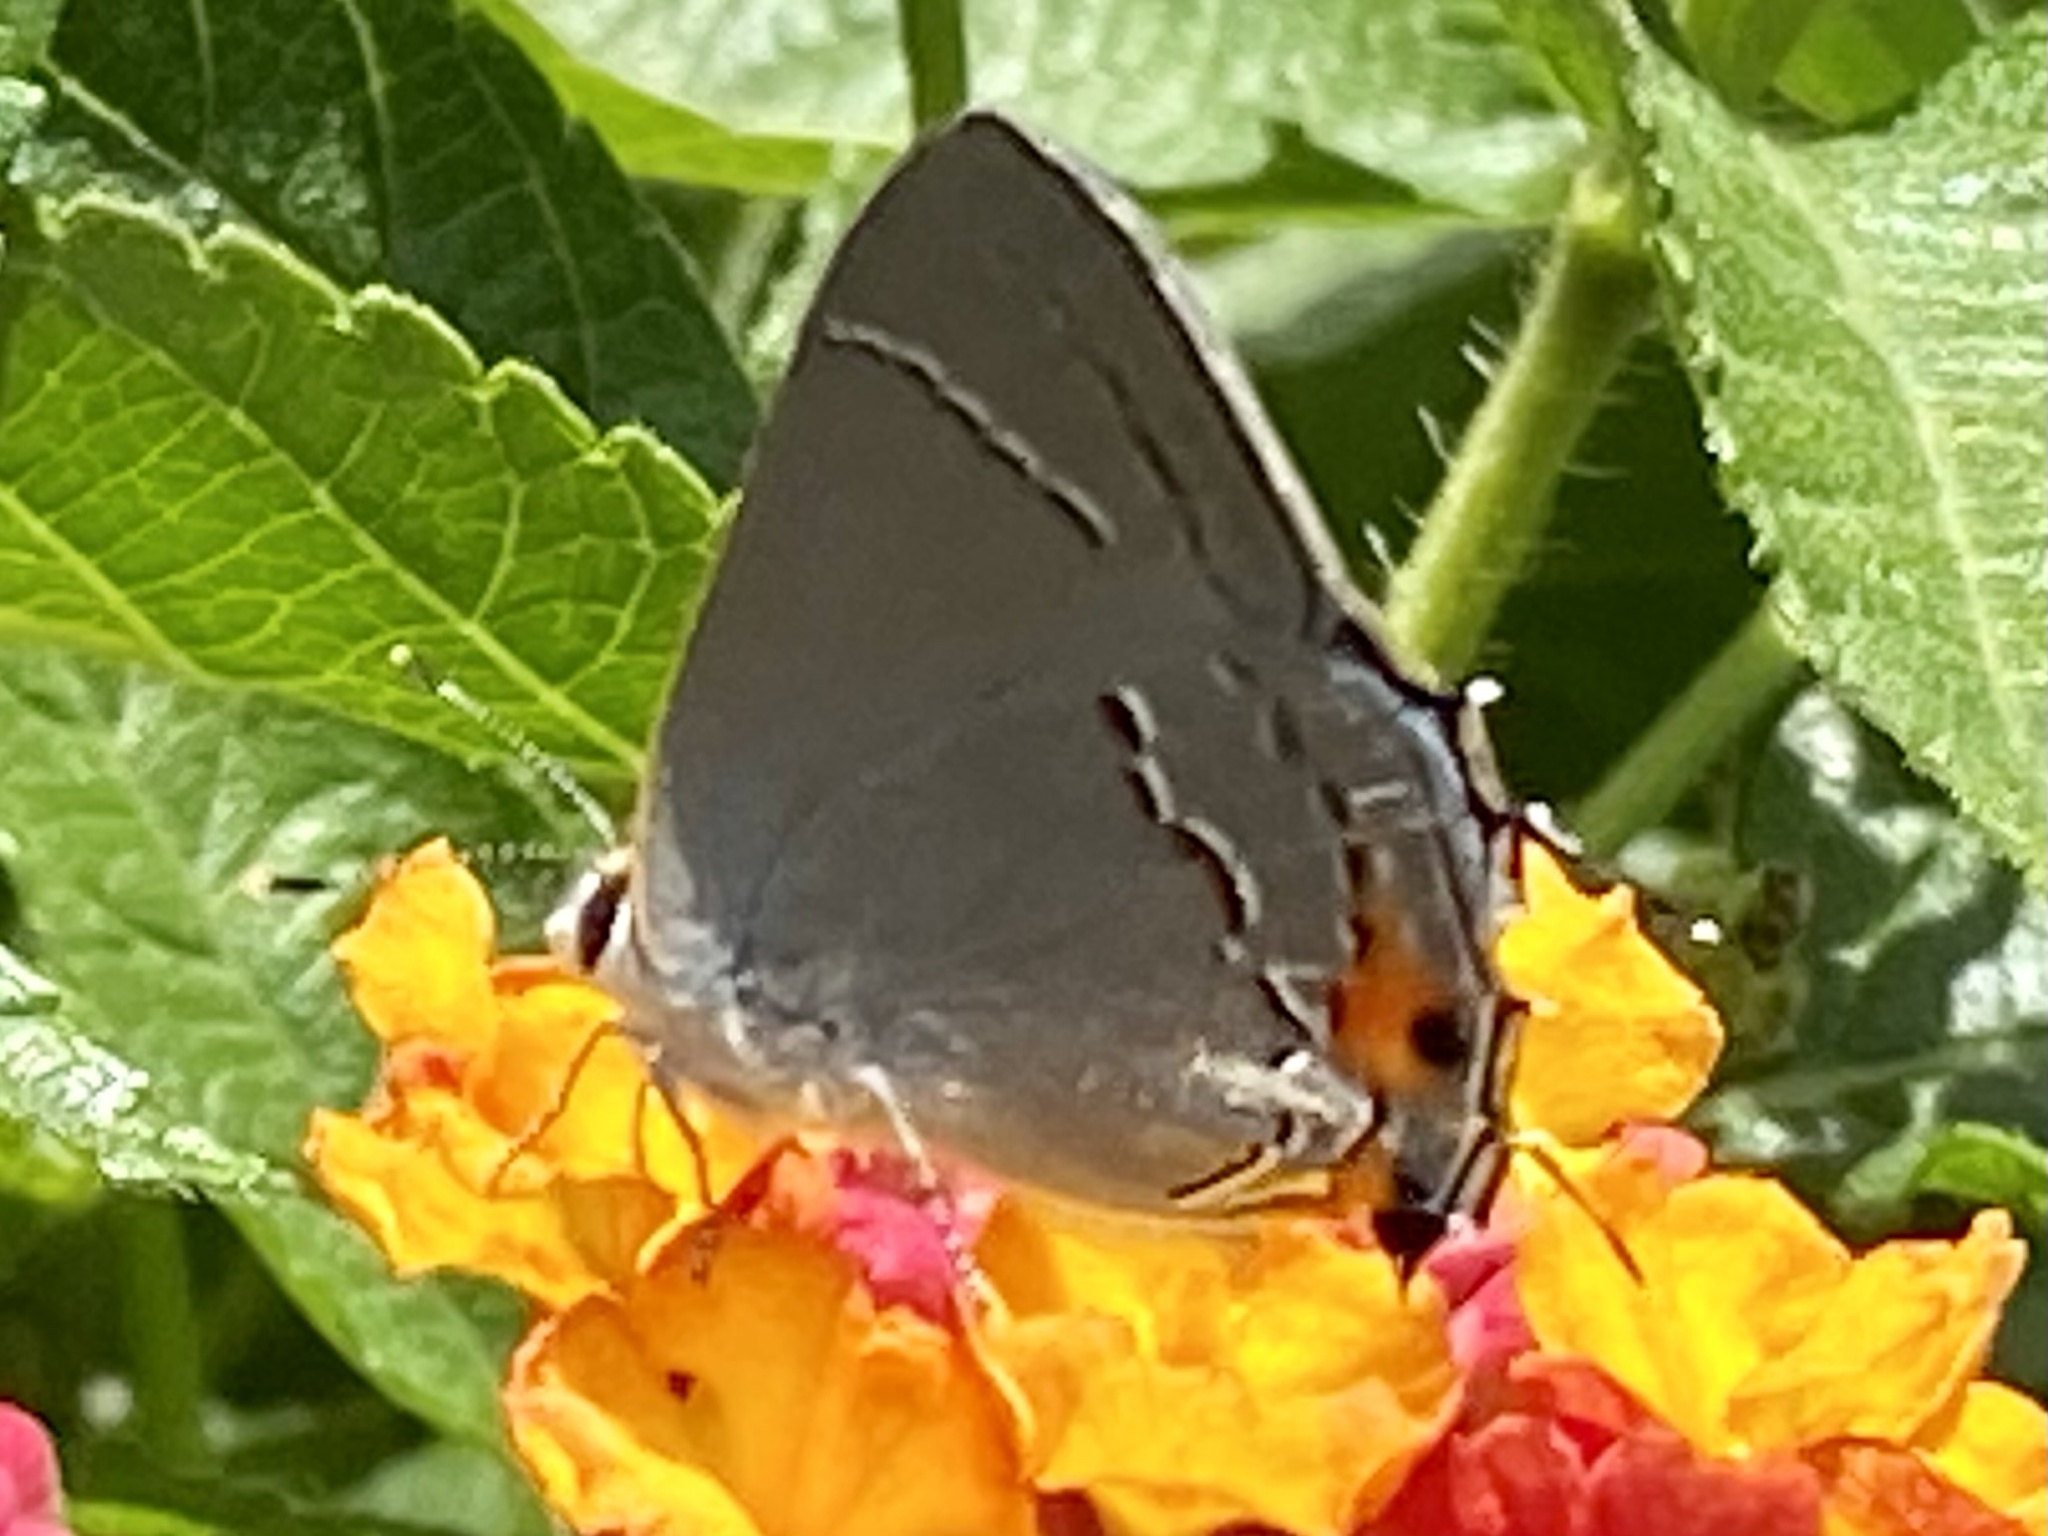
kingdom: Animalia
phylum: Arthropoda
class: Insecta
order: Lepidoptera
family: Lycaenidae
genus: Strymon
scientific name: Strymon melinus
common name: Gray hairstreak
